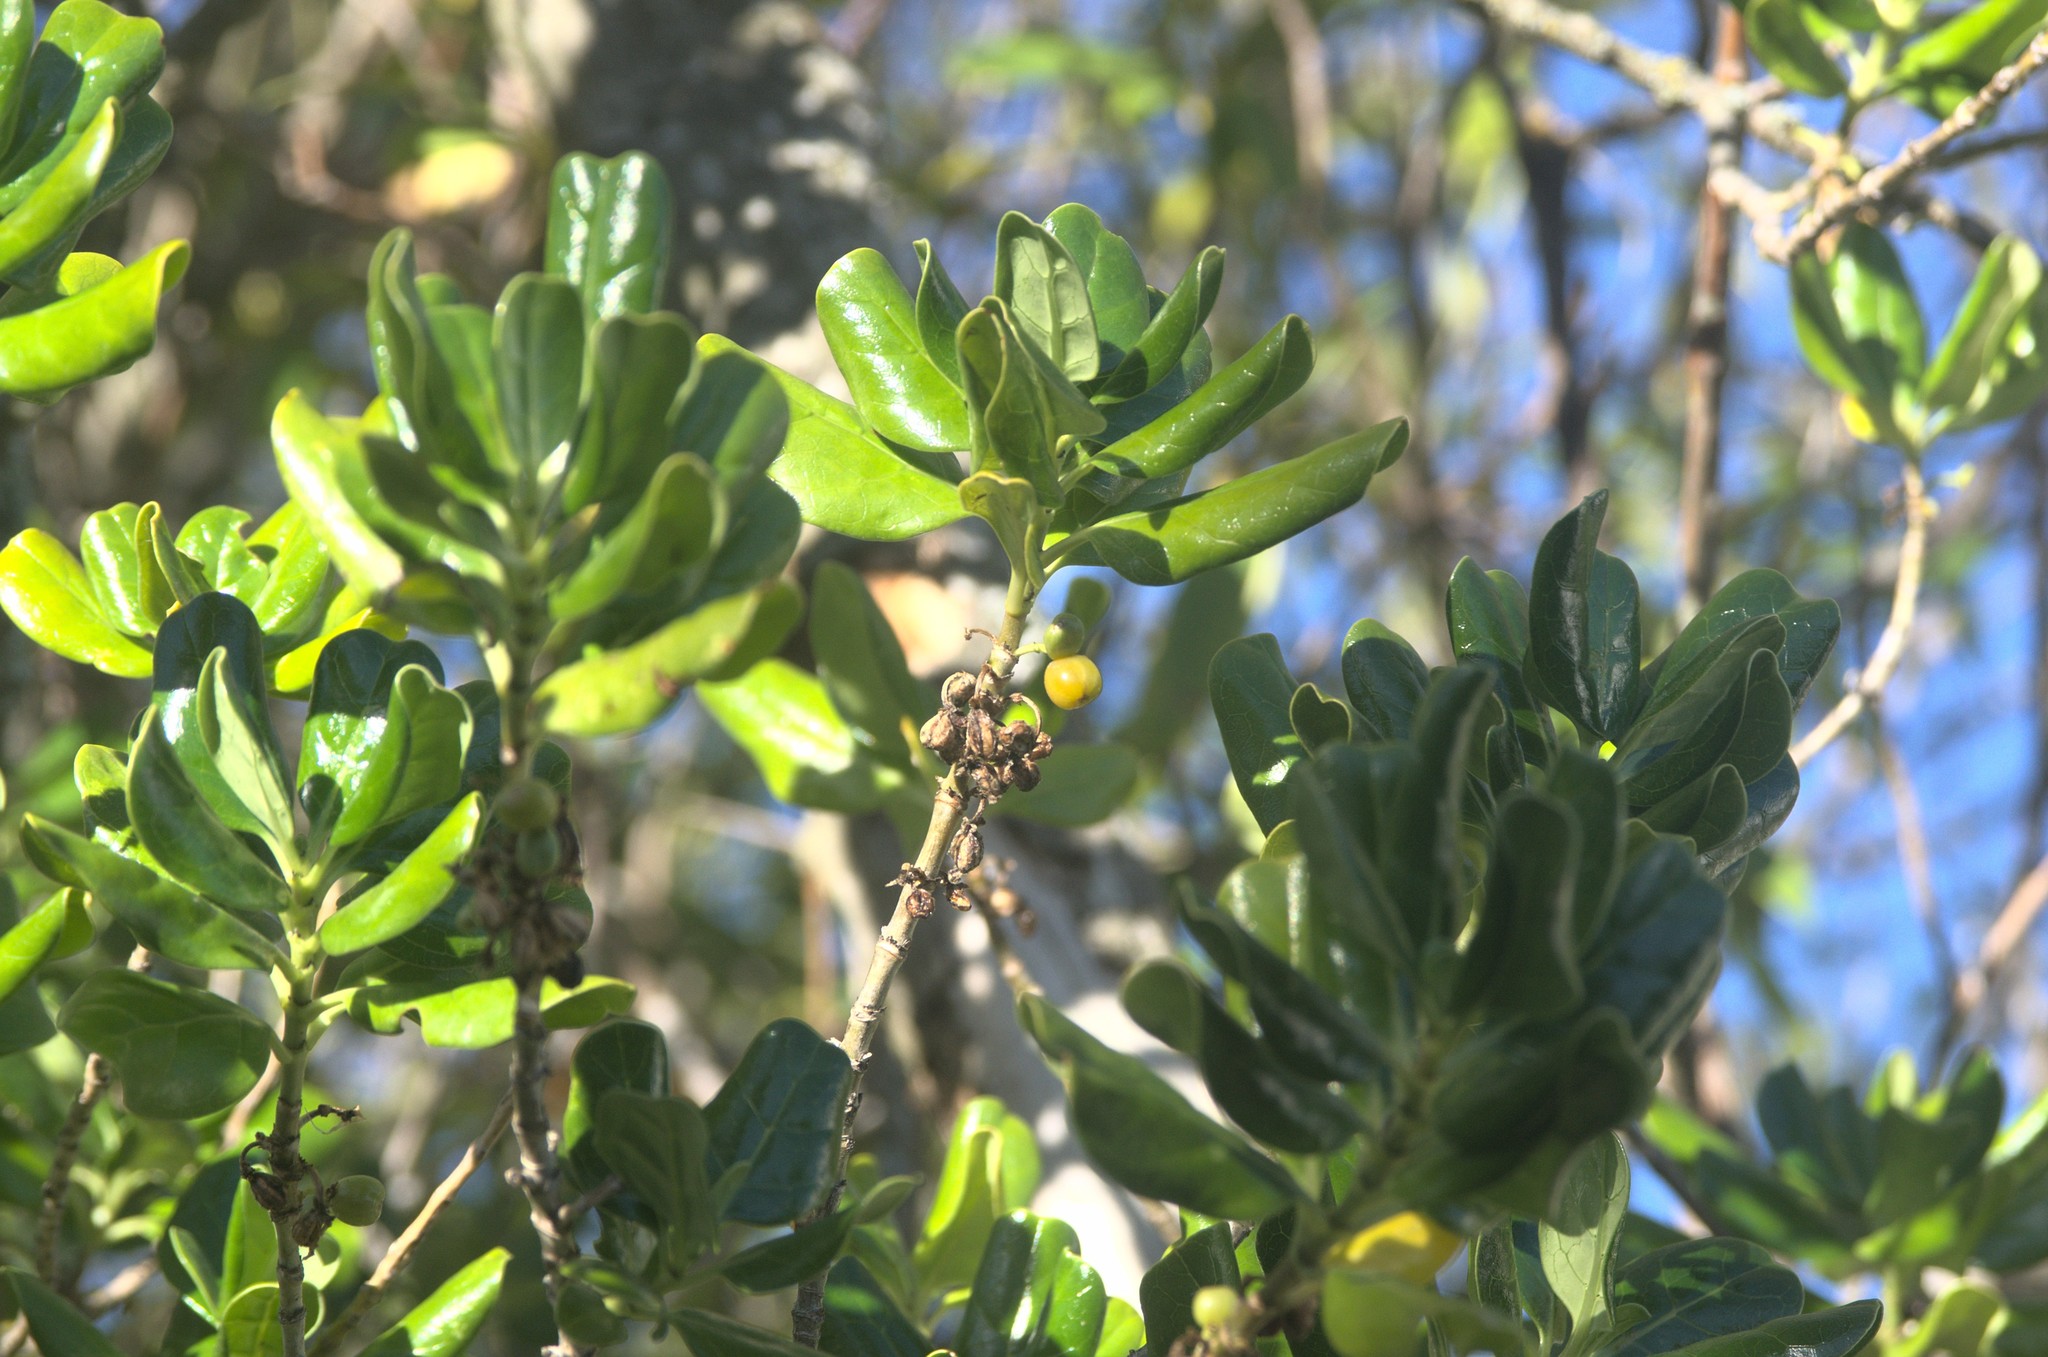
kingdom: Plantae
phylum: Tracheophyta
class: Magnoliopsida
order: Gentianales
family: Rubiaceae
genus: Coprosma
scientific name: Coprosma repens
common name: Tree bedstraw
